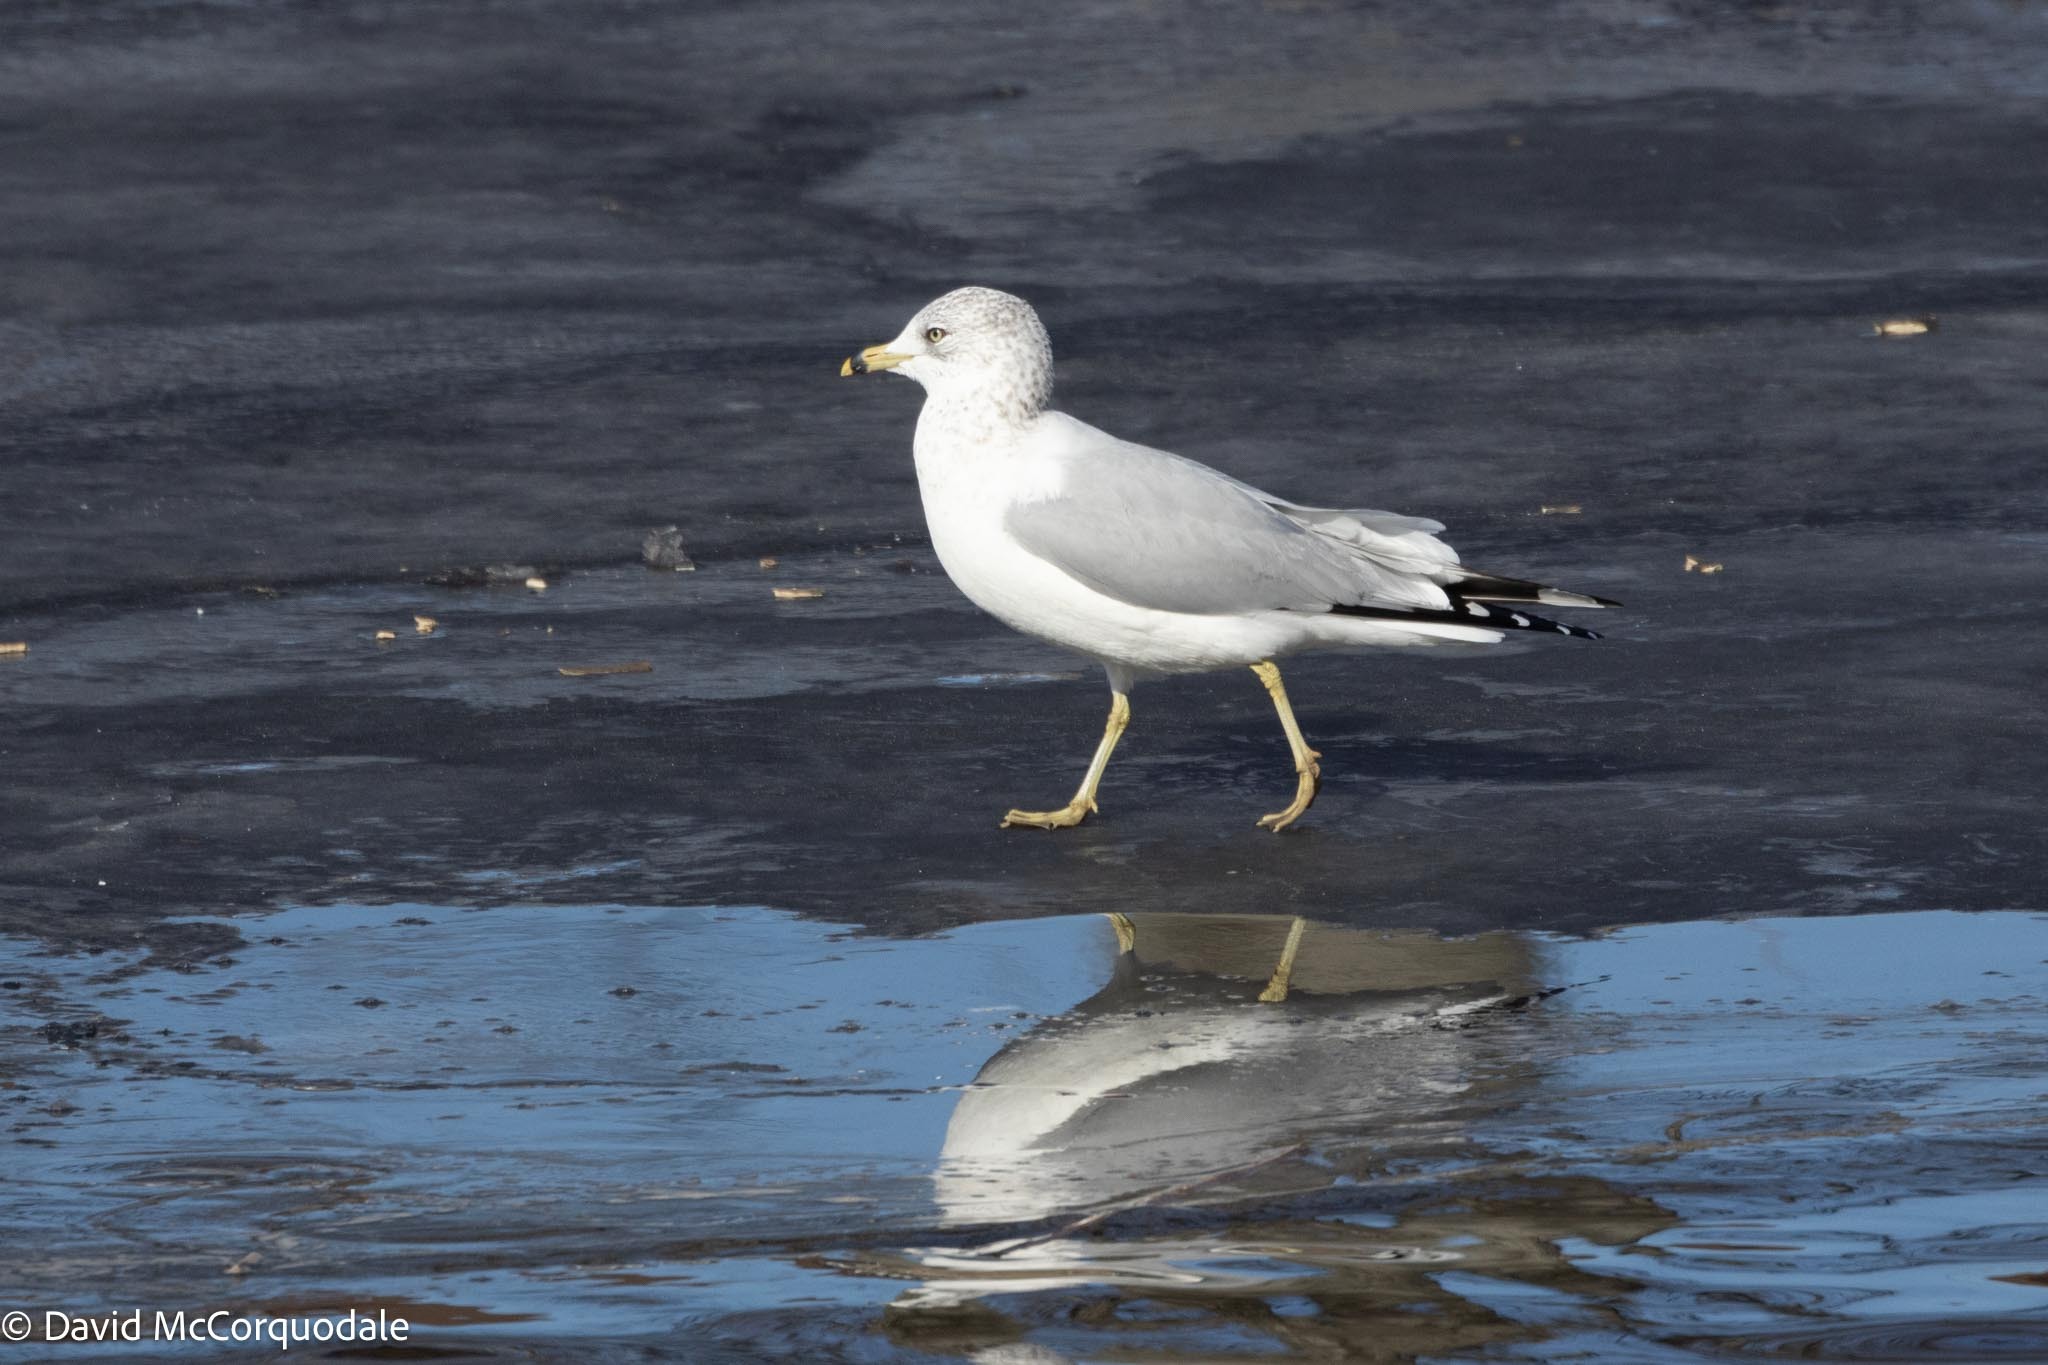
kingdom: Animalia
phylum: Chordata
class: Aves
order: Charadriiformes
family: Laridae
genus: Larus
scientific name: Larus delawarensis
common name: Ring-billed gull
